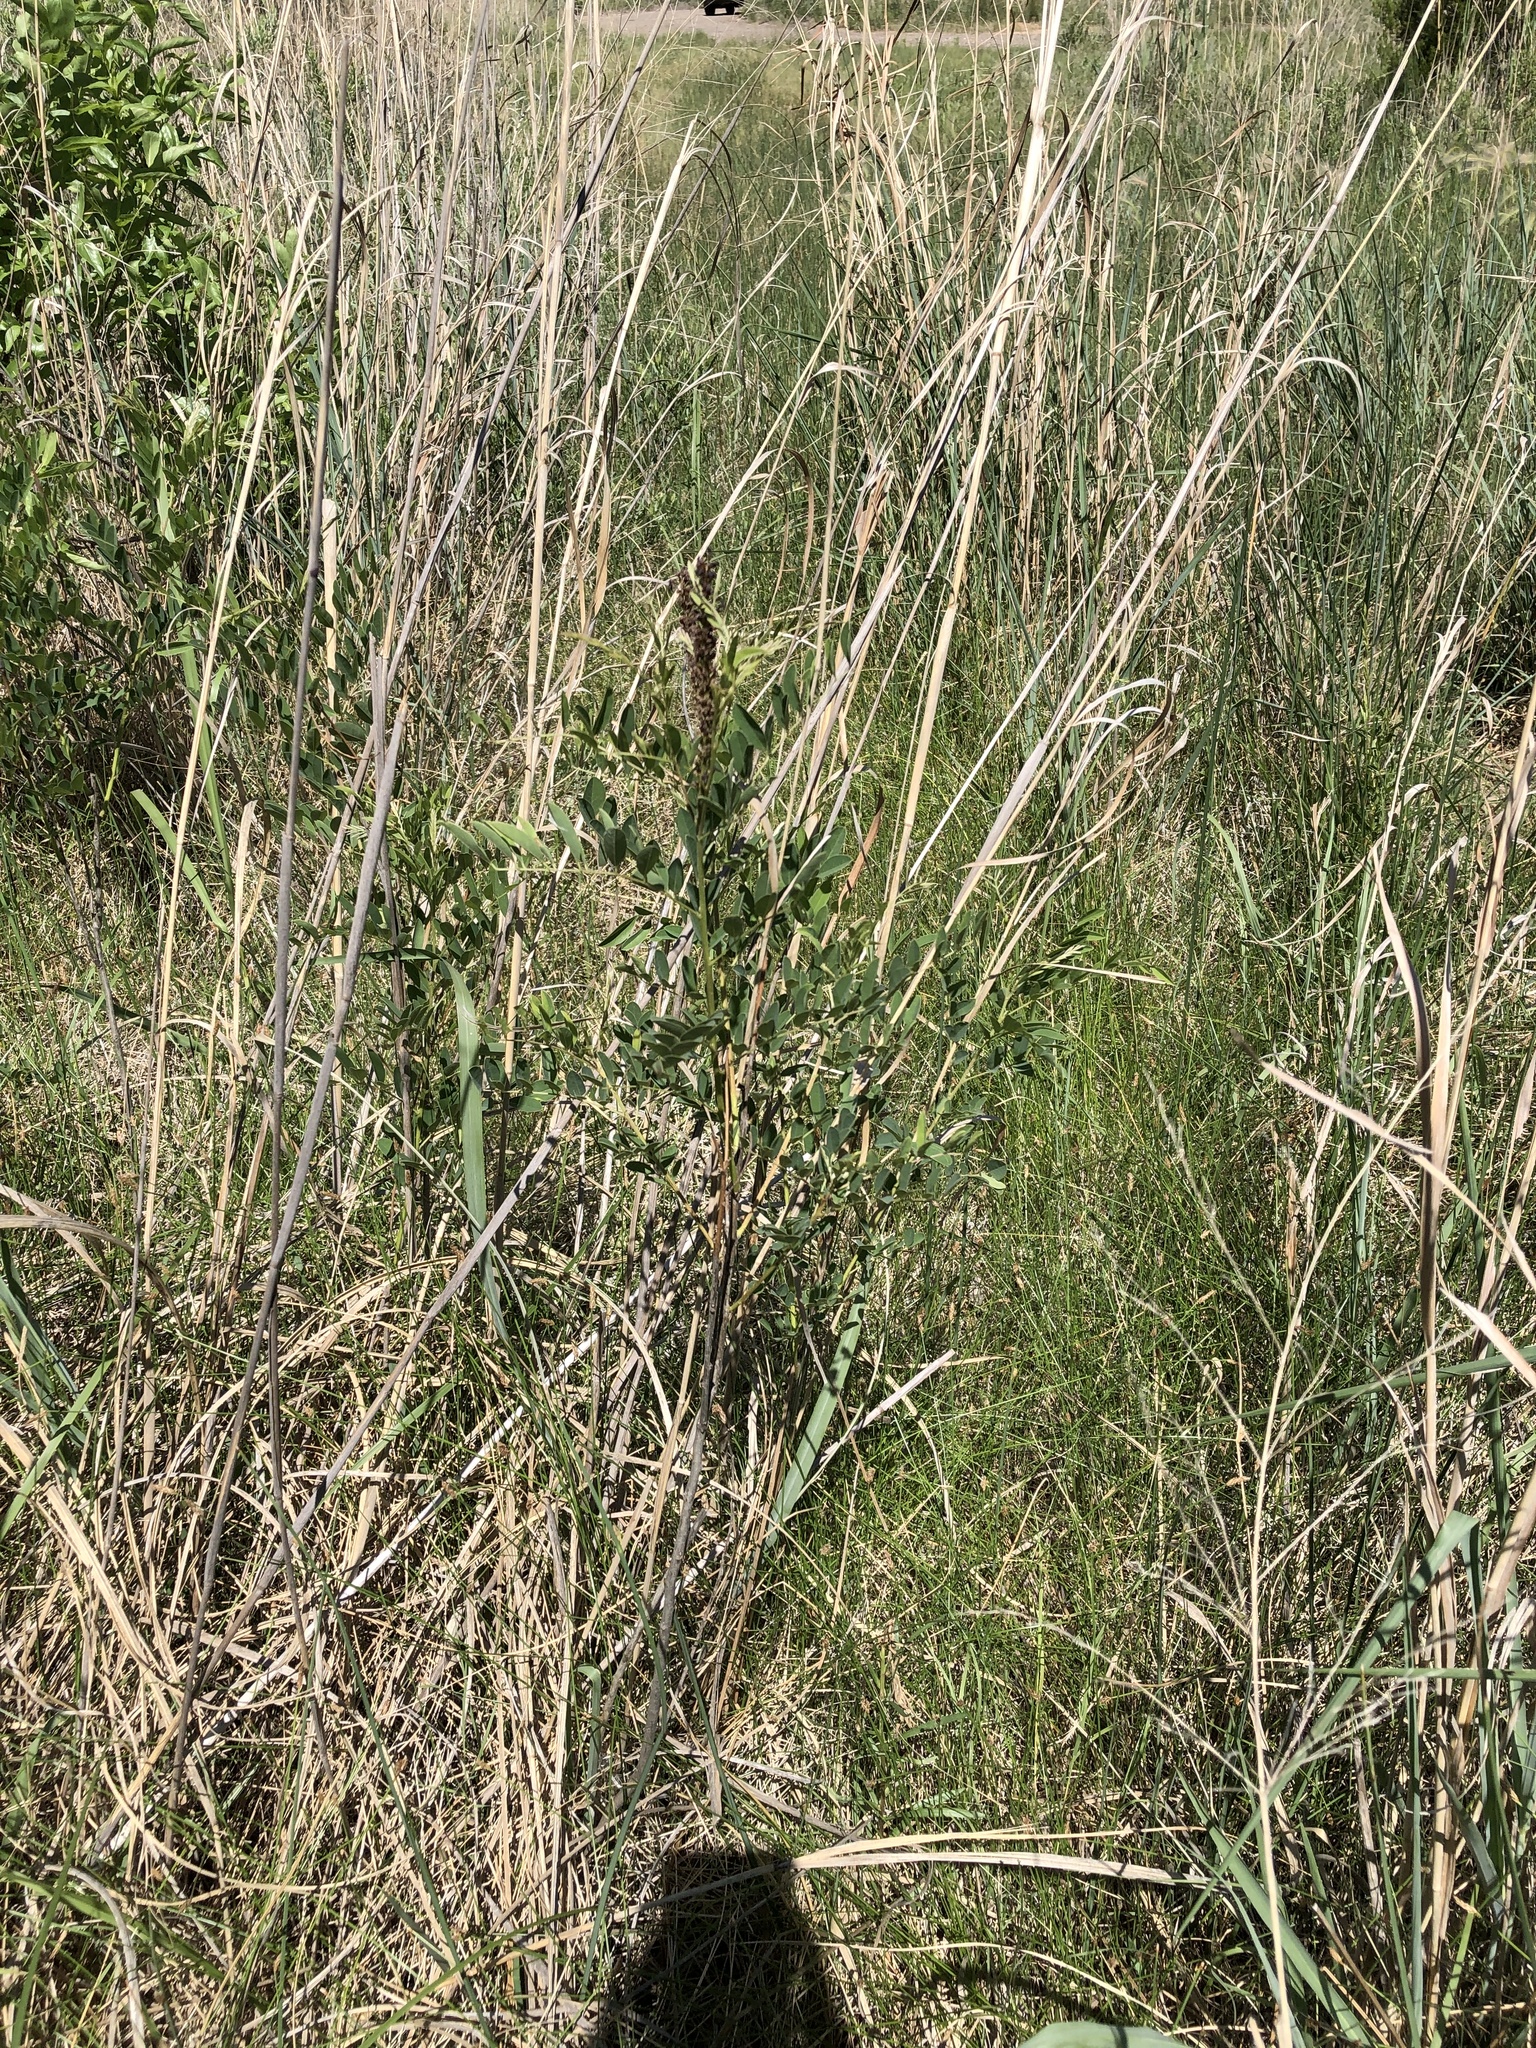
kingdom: Plantae
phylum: Tracheophyta
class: Magnoliopsida
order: Fabales
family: Fabaceae
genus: Amorpha
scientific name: Amorpha fruticosa
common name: False indigo
